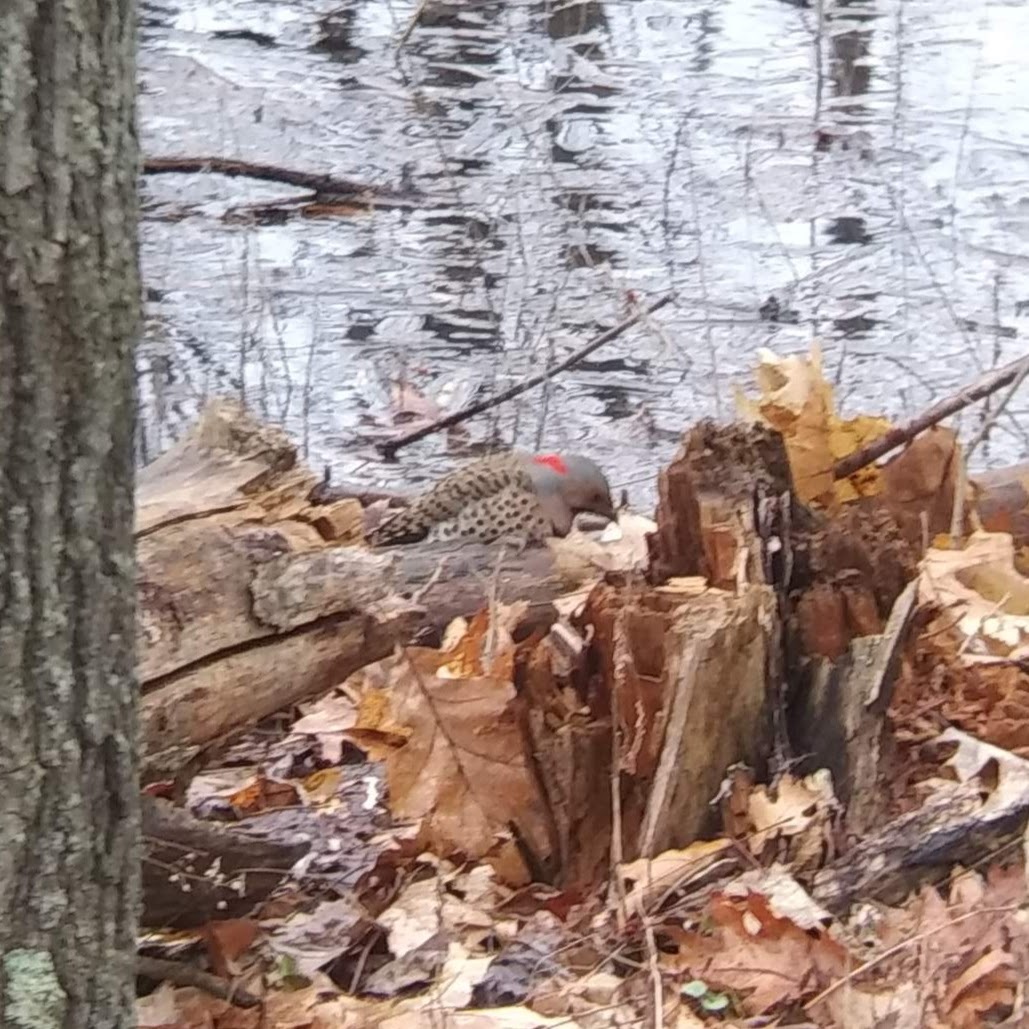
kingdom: Animalia
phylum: Chordata
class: Aves
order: Piciformes
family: Picidae
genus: Colaptes
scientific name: Colaptes auratus
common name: Northern flicker
